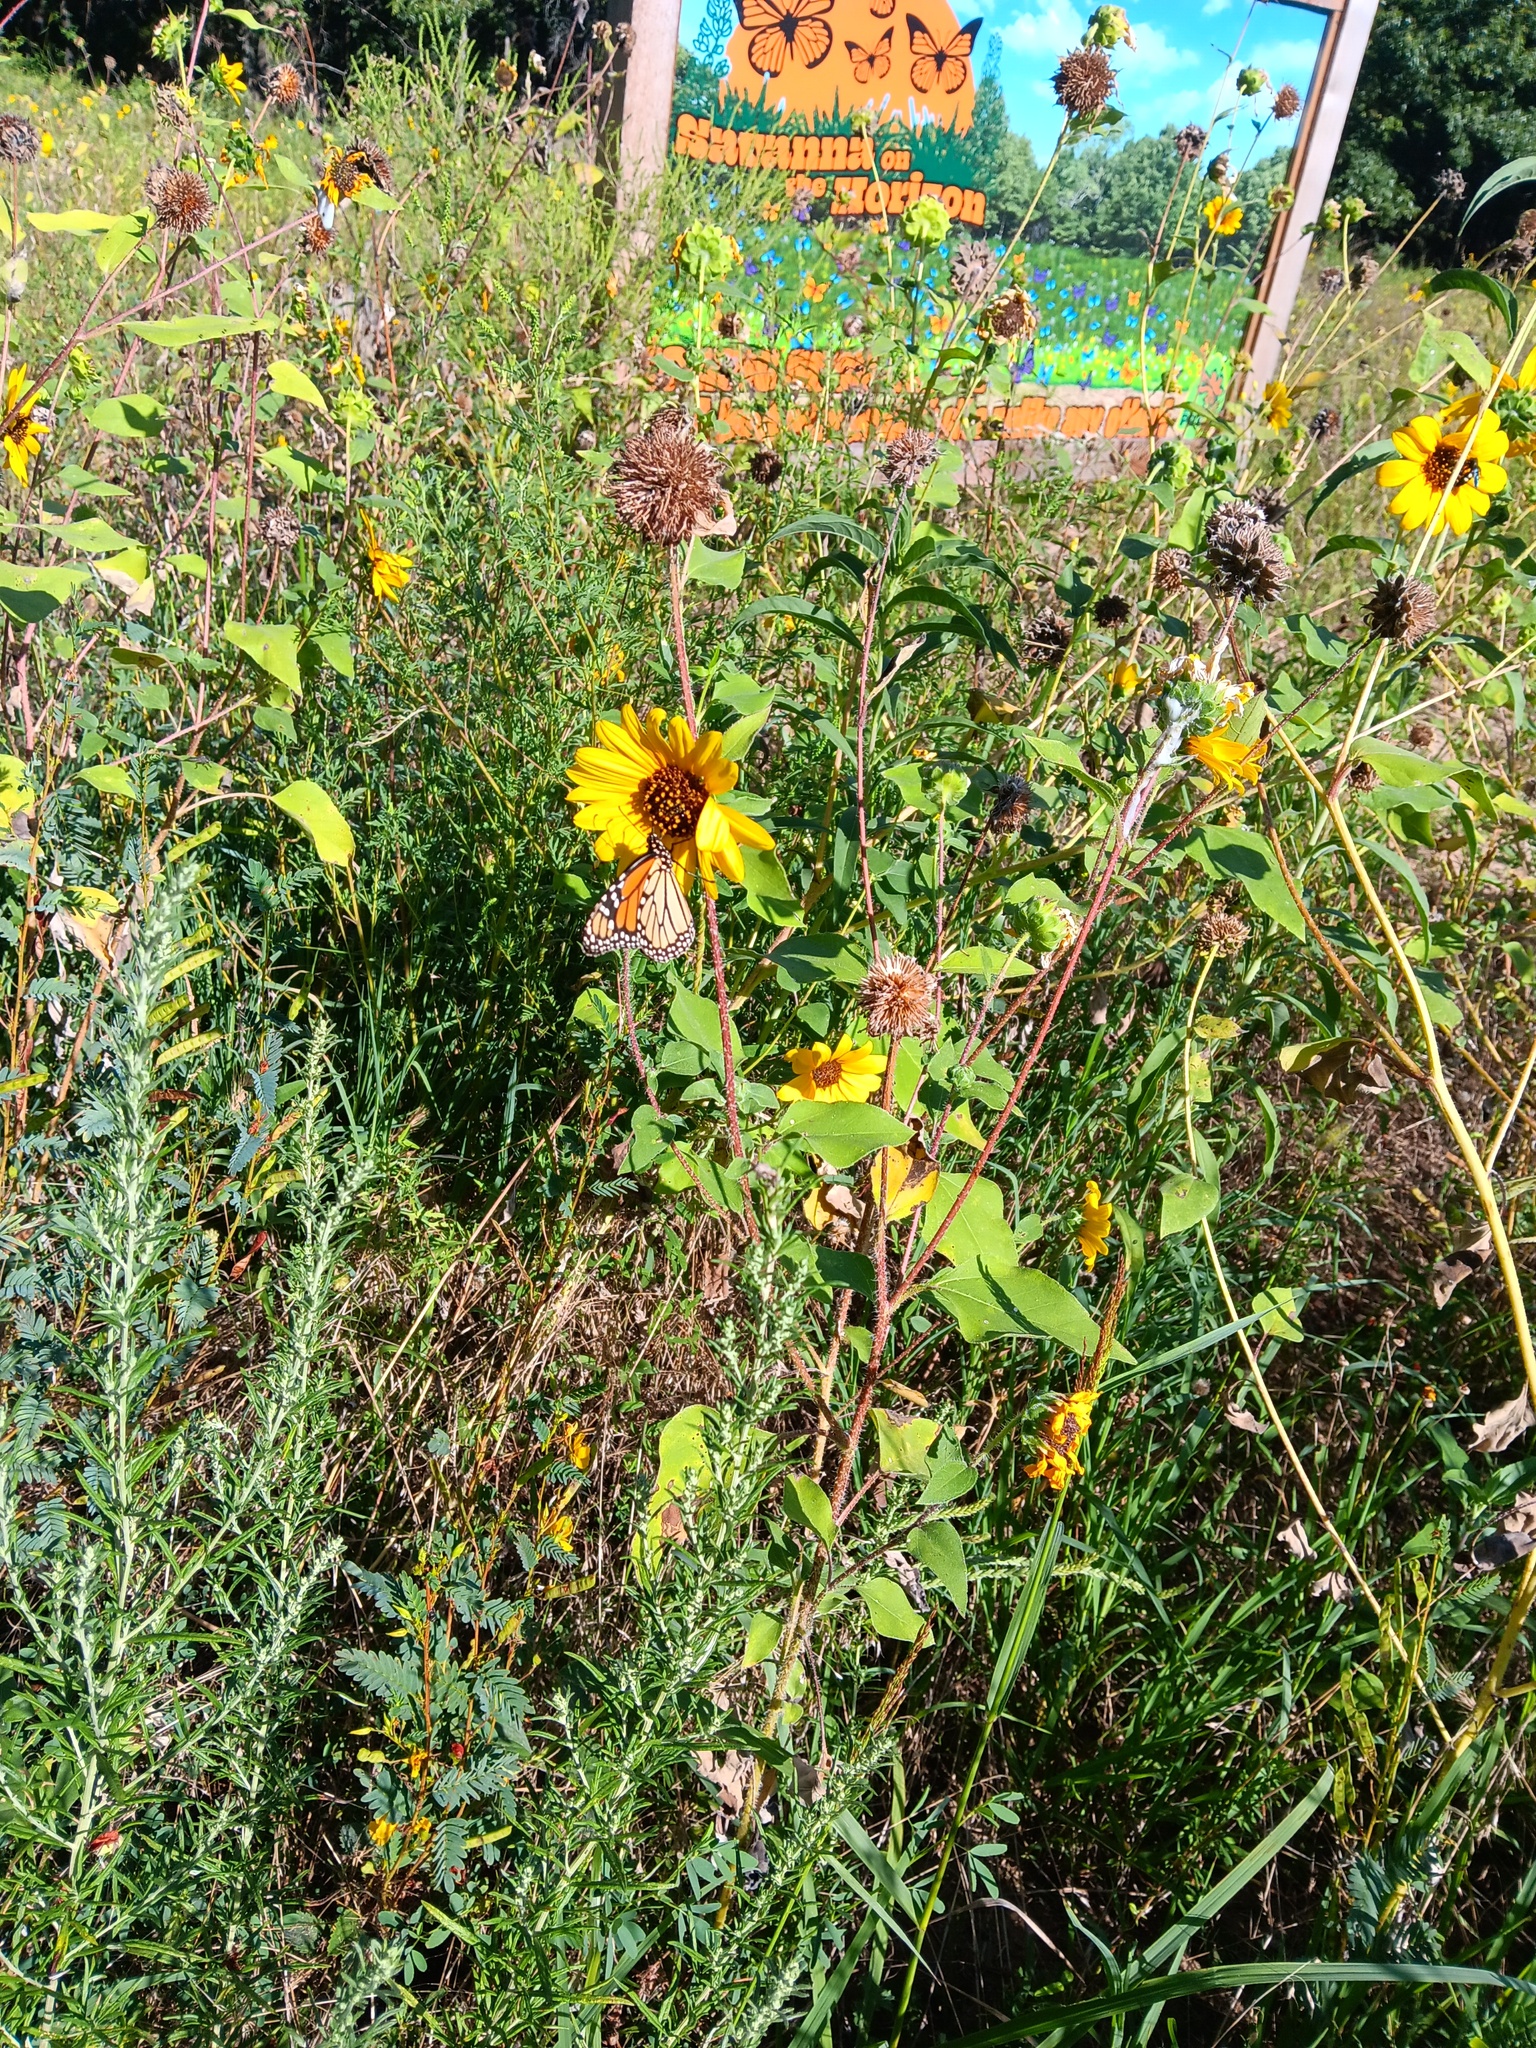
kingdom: Plantae
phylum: Tracheophyta
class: Magnoliopsida
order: Asterales
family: Asteraceae
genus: Helianthus
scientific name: Helianthus annuus
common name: Sunflower
